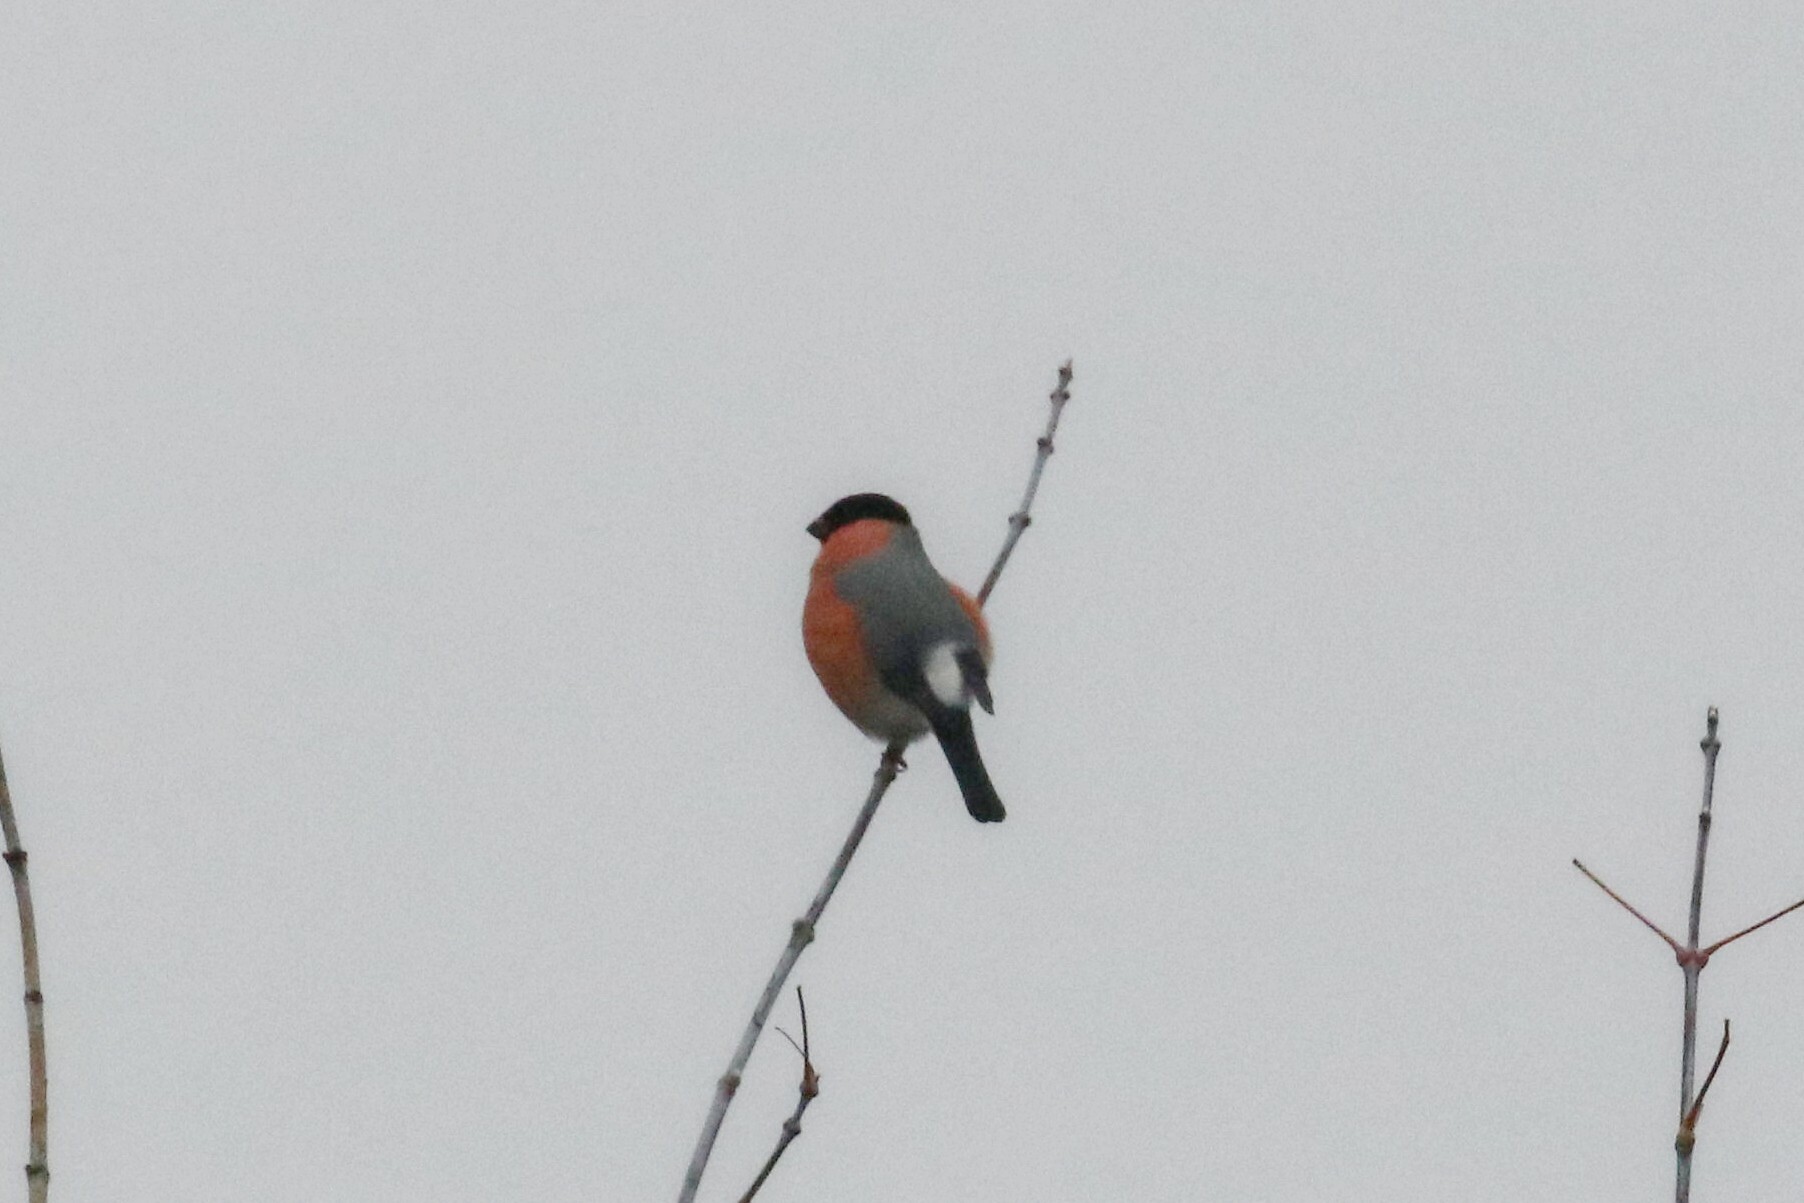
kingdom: Animalia
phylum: Chordata
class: Aves
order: Passeriformes
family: Fringillidae
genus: Pyrrhula
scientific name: Pyrrhula pyrrhula
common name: Eurasian bullfinch
